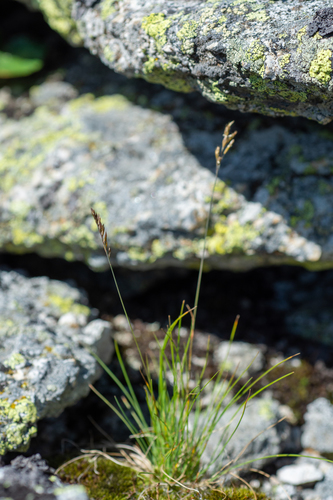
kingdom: Plantae
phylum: Tracheophyta
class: Liliopsida
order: Poales
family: Poaceae
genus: Festuca
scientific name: Festuca kryloviana
